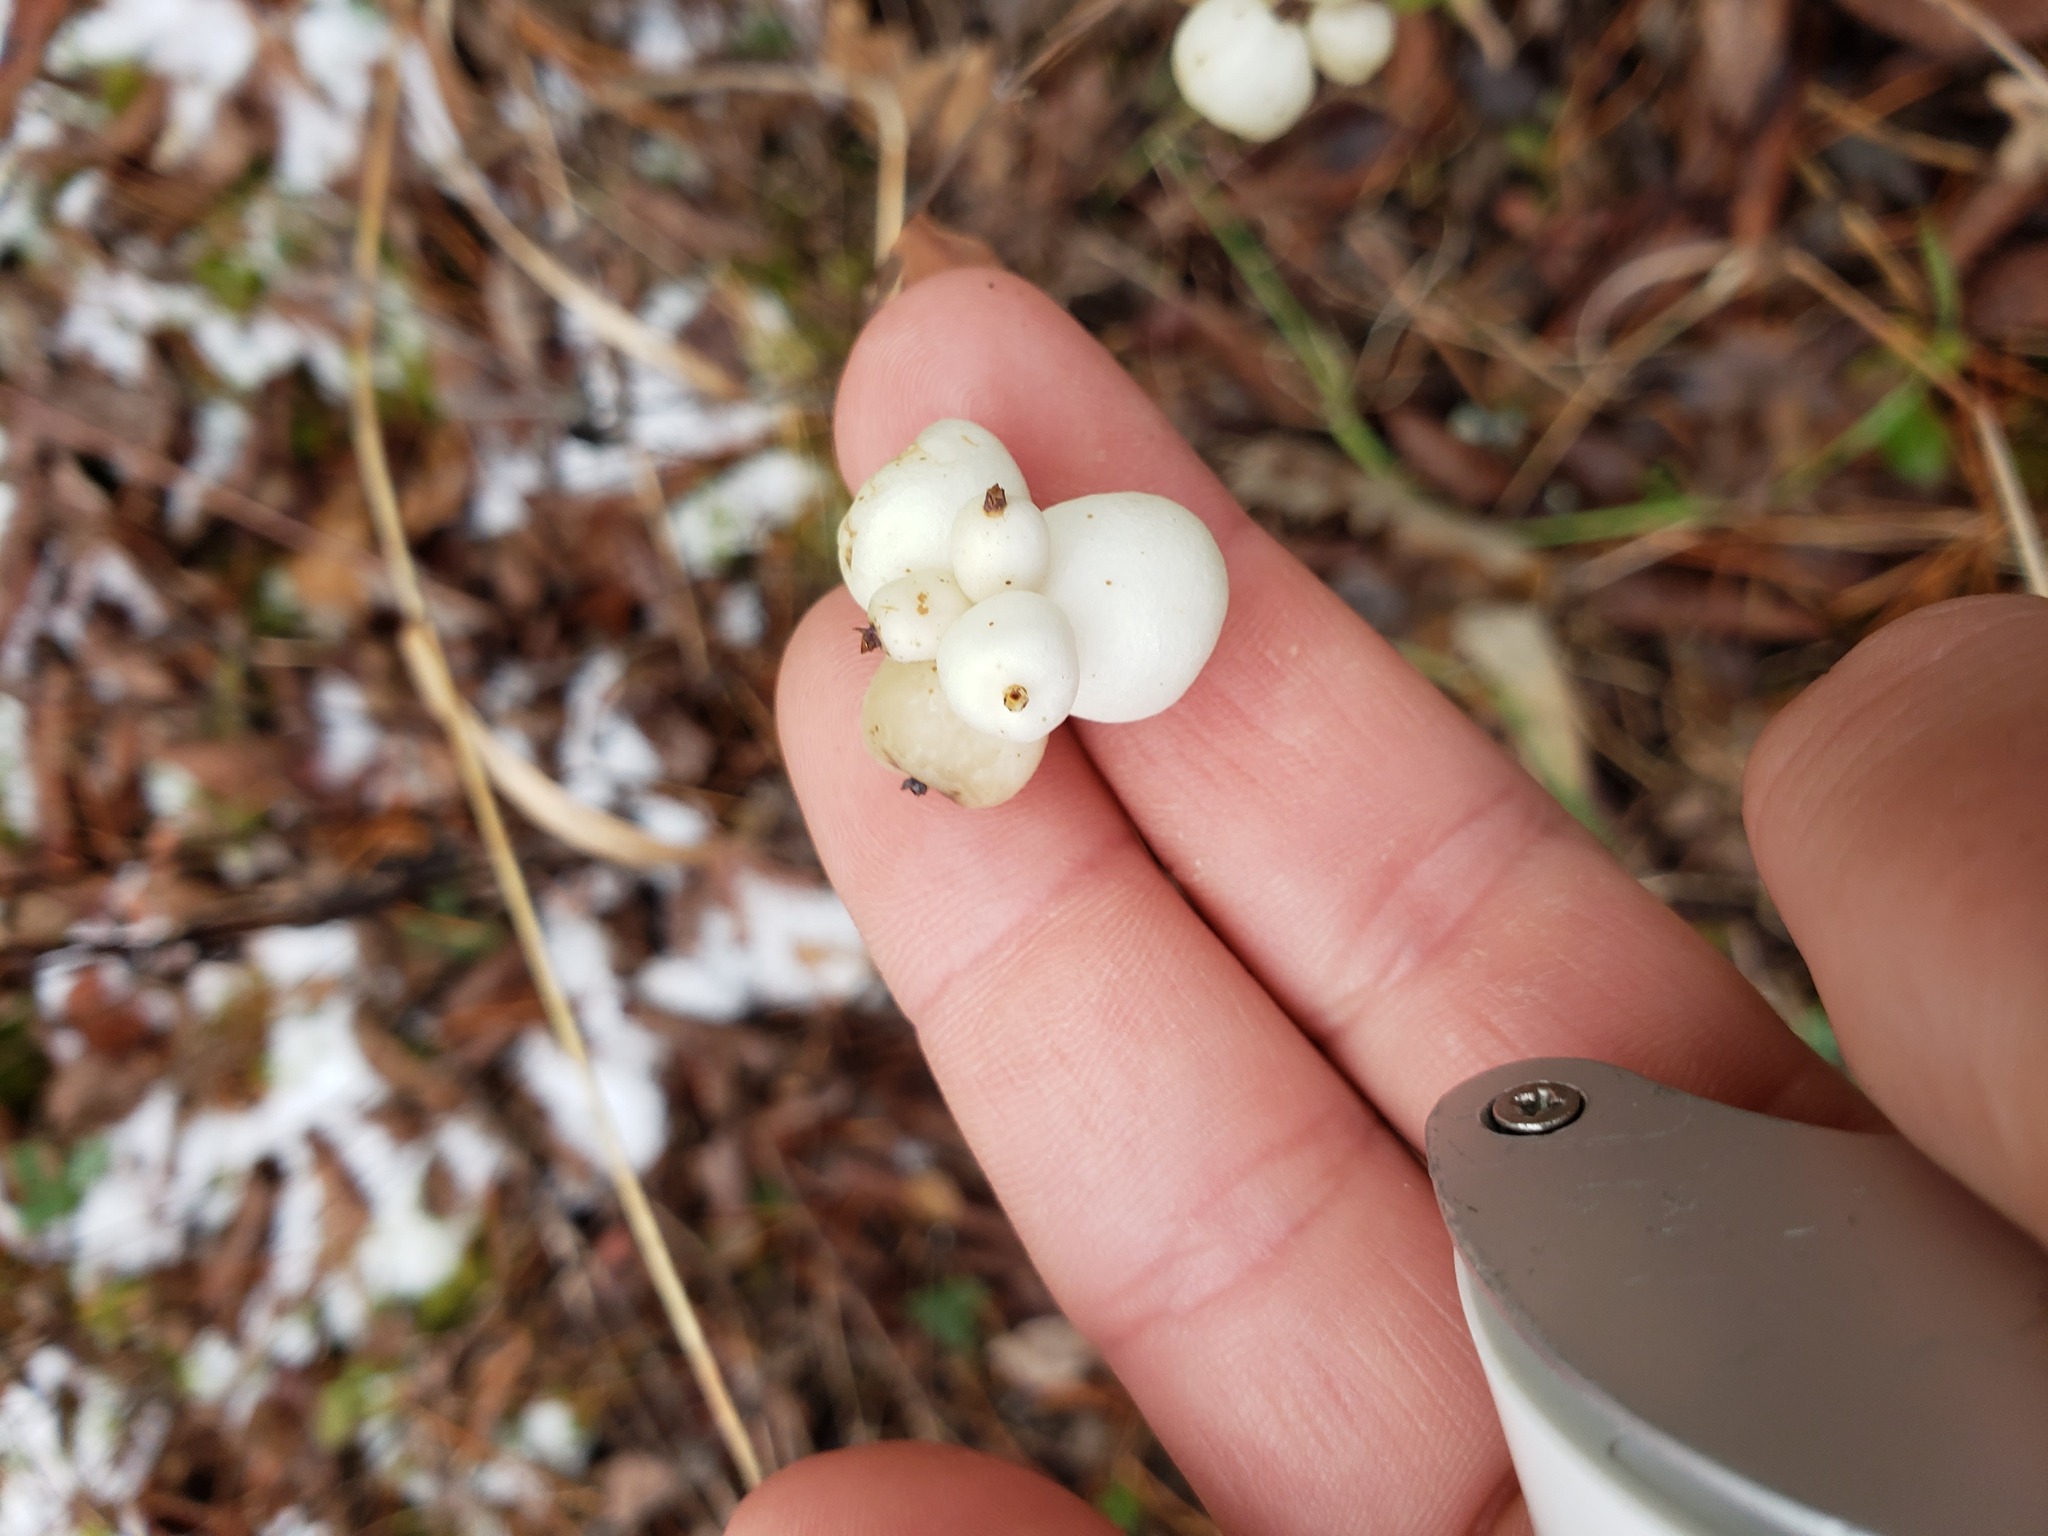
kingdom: Plantae
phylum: Tracheophyta
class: Magnoliopsida
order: Dipsacales
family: Caprifoliaceae
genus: Symphoricarpos
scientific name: Symphoricarpos albus
